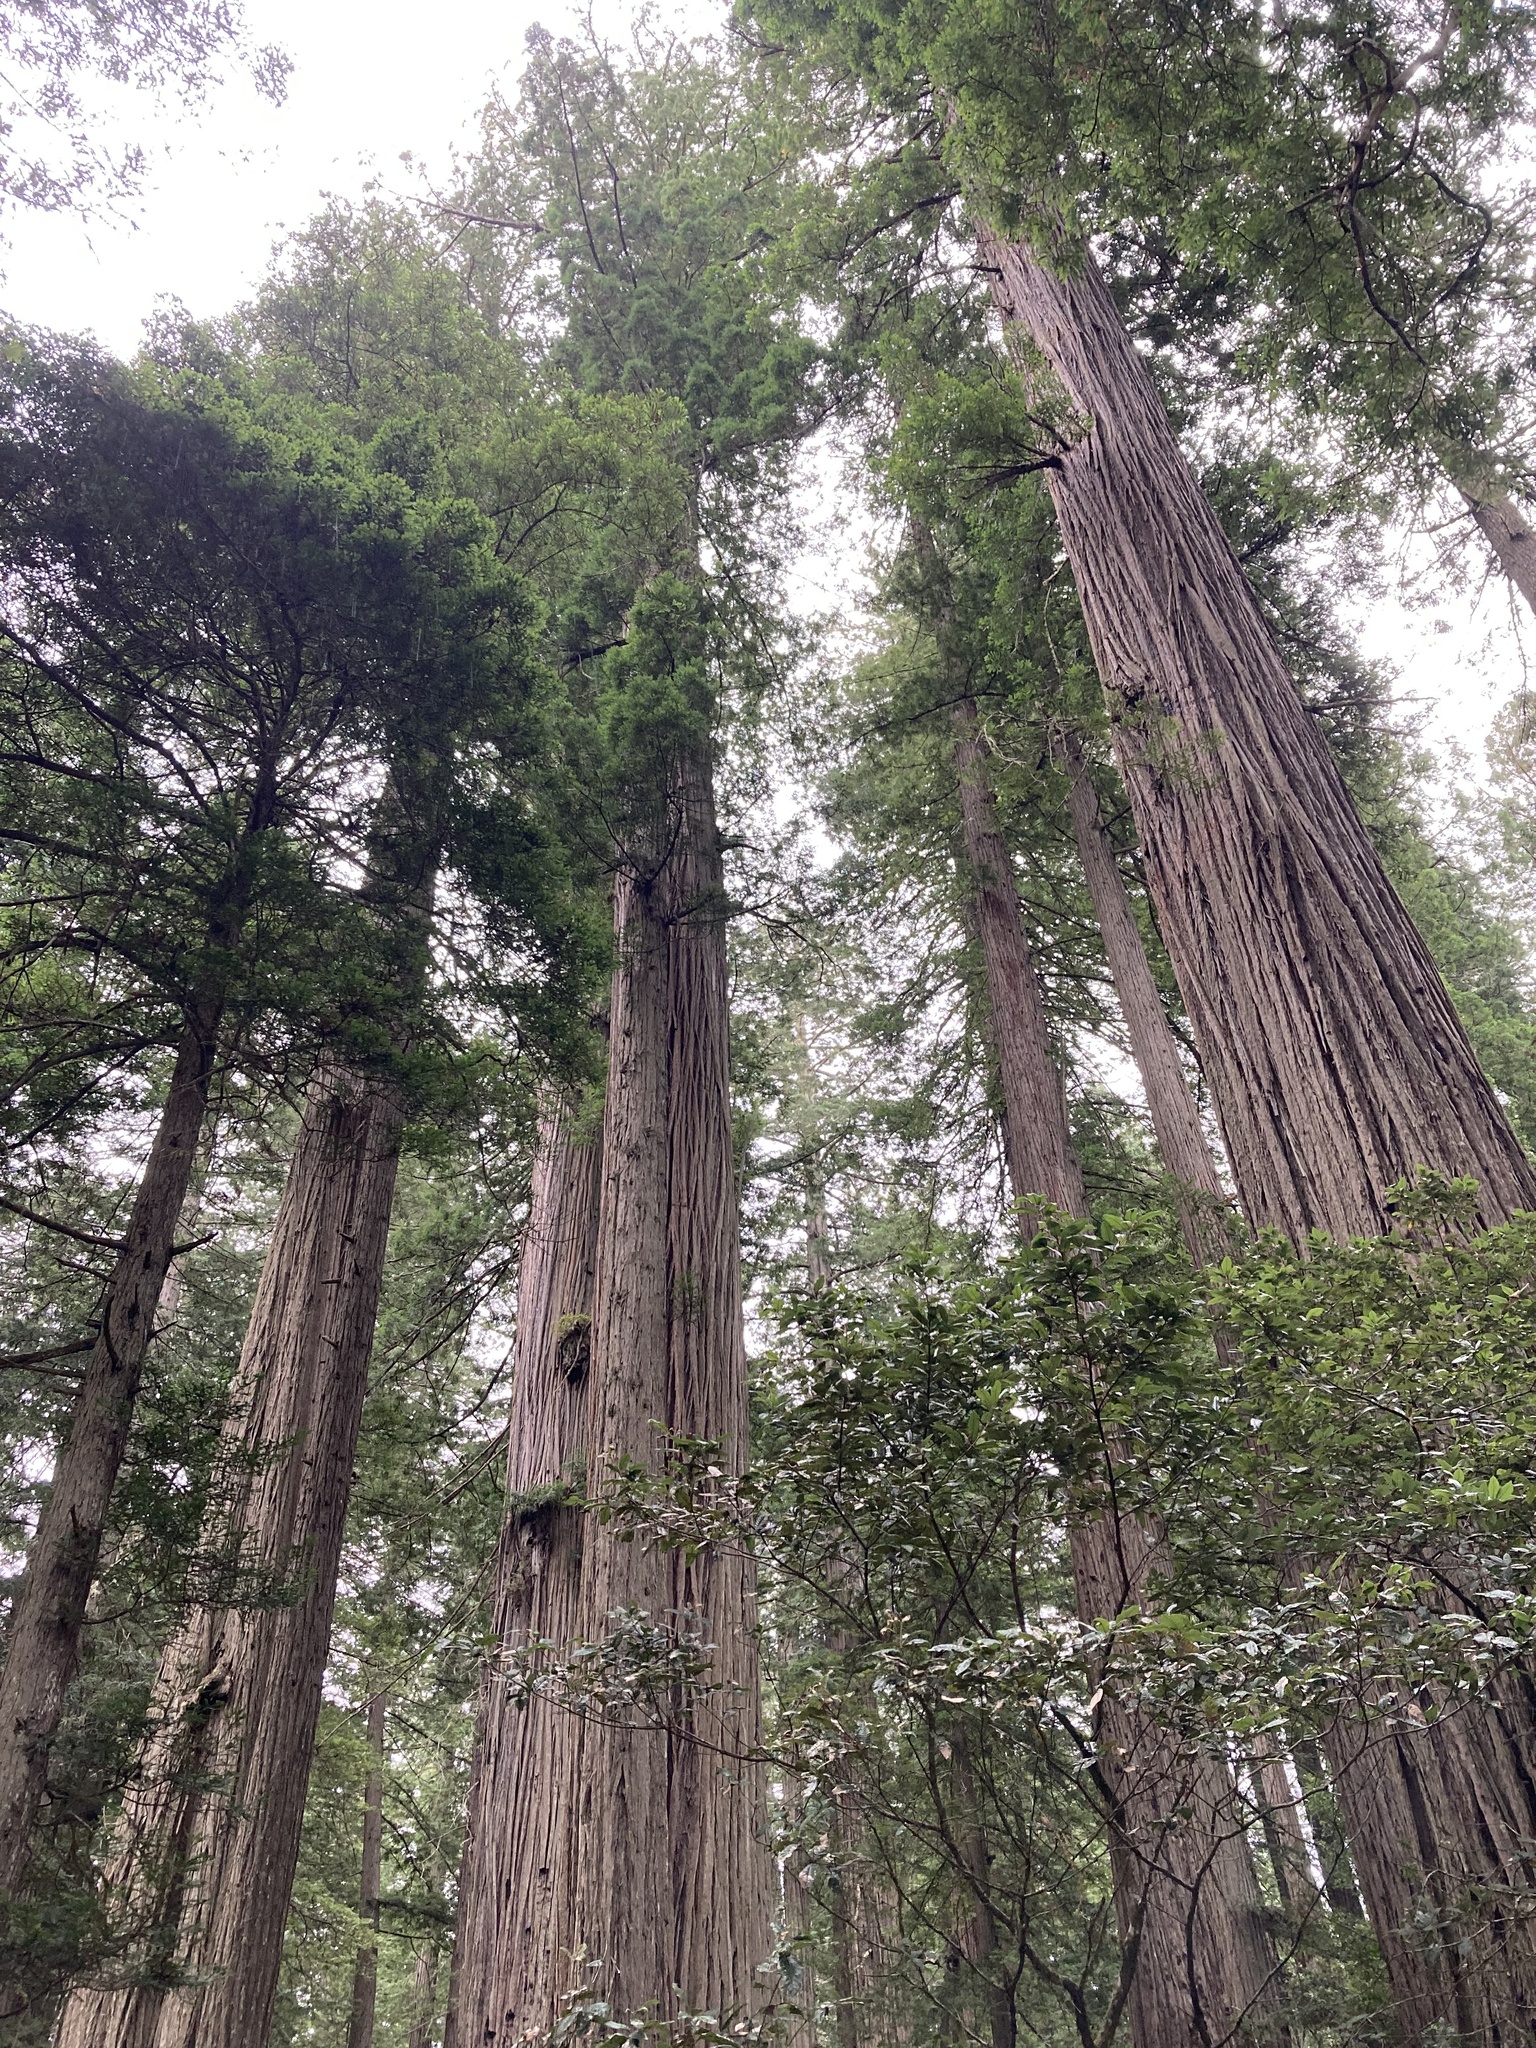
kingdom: Plantae
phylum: Tracheophyta
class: Pinopsida
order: Pinales
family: Cupressaceae
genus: Sequoia
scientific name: Sequoia sempervirens
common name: Coast redwood
